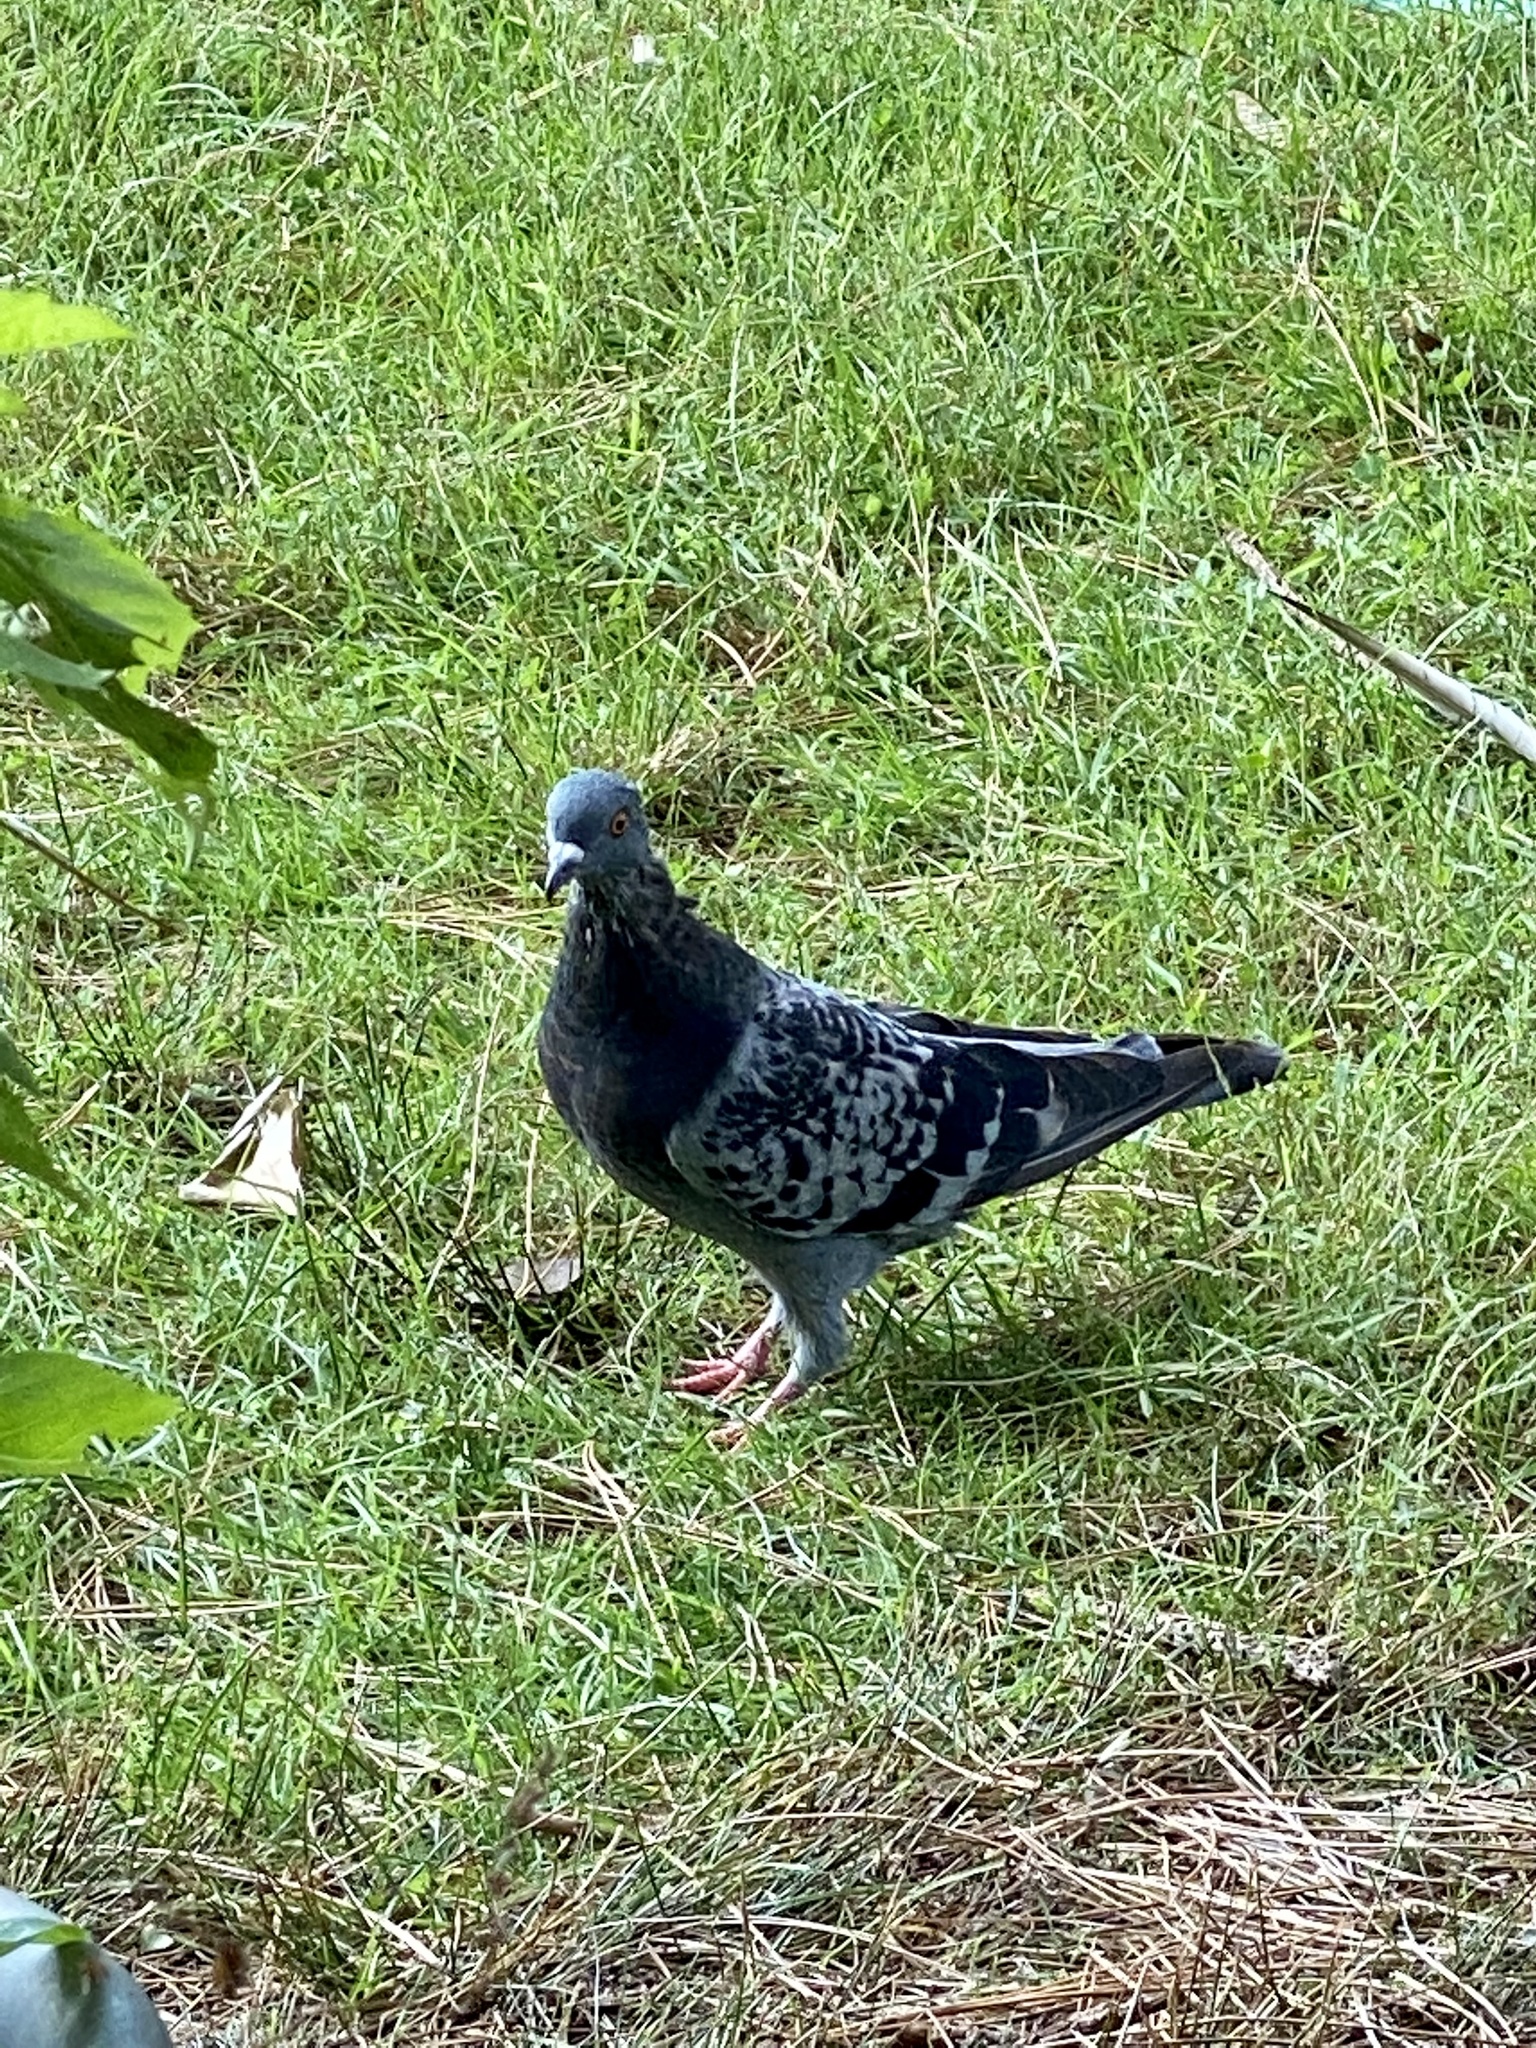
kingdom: Animalia
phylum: Chordata
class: Aves
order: Columbiformes
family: Columbidae
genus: Columba
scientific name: Columba livia
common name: Rock pigeon
